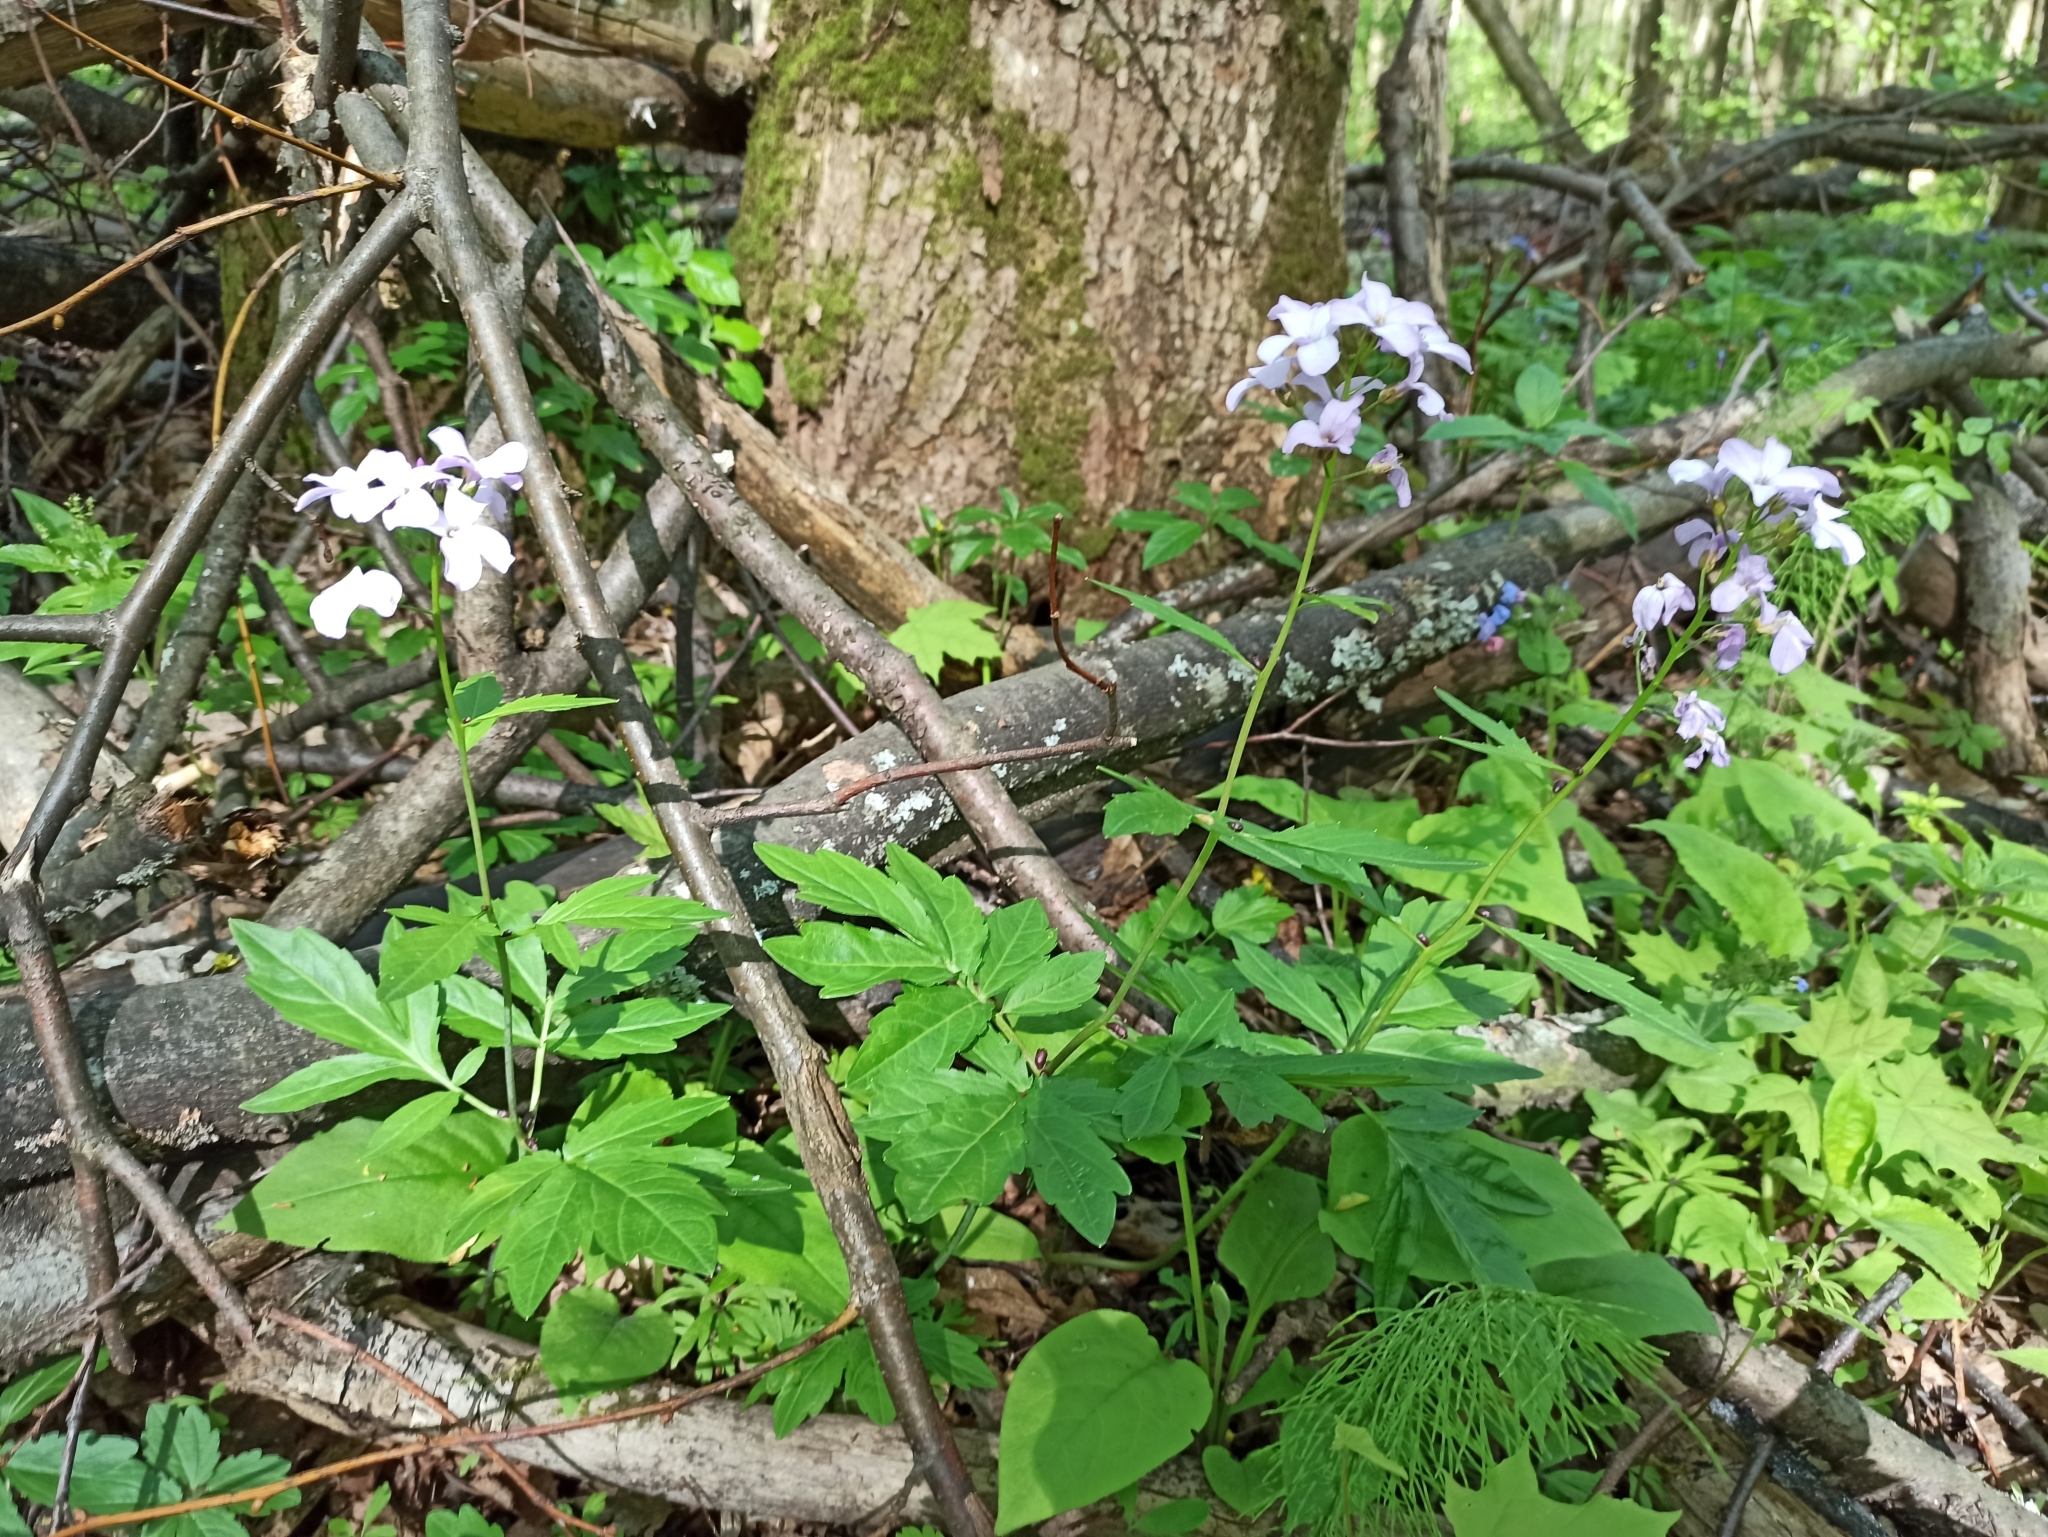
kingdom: Plantae
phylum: Tracheophyta
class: Magnoliopsida
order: Brassicales
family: Brassicaceae
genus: Cardamine
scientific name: Cardamine bulbifera
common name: Coralroot bittercress
